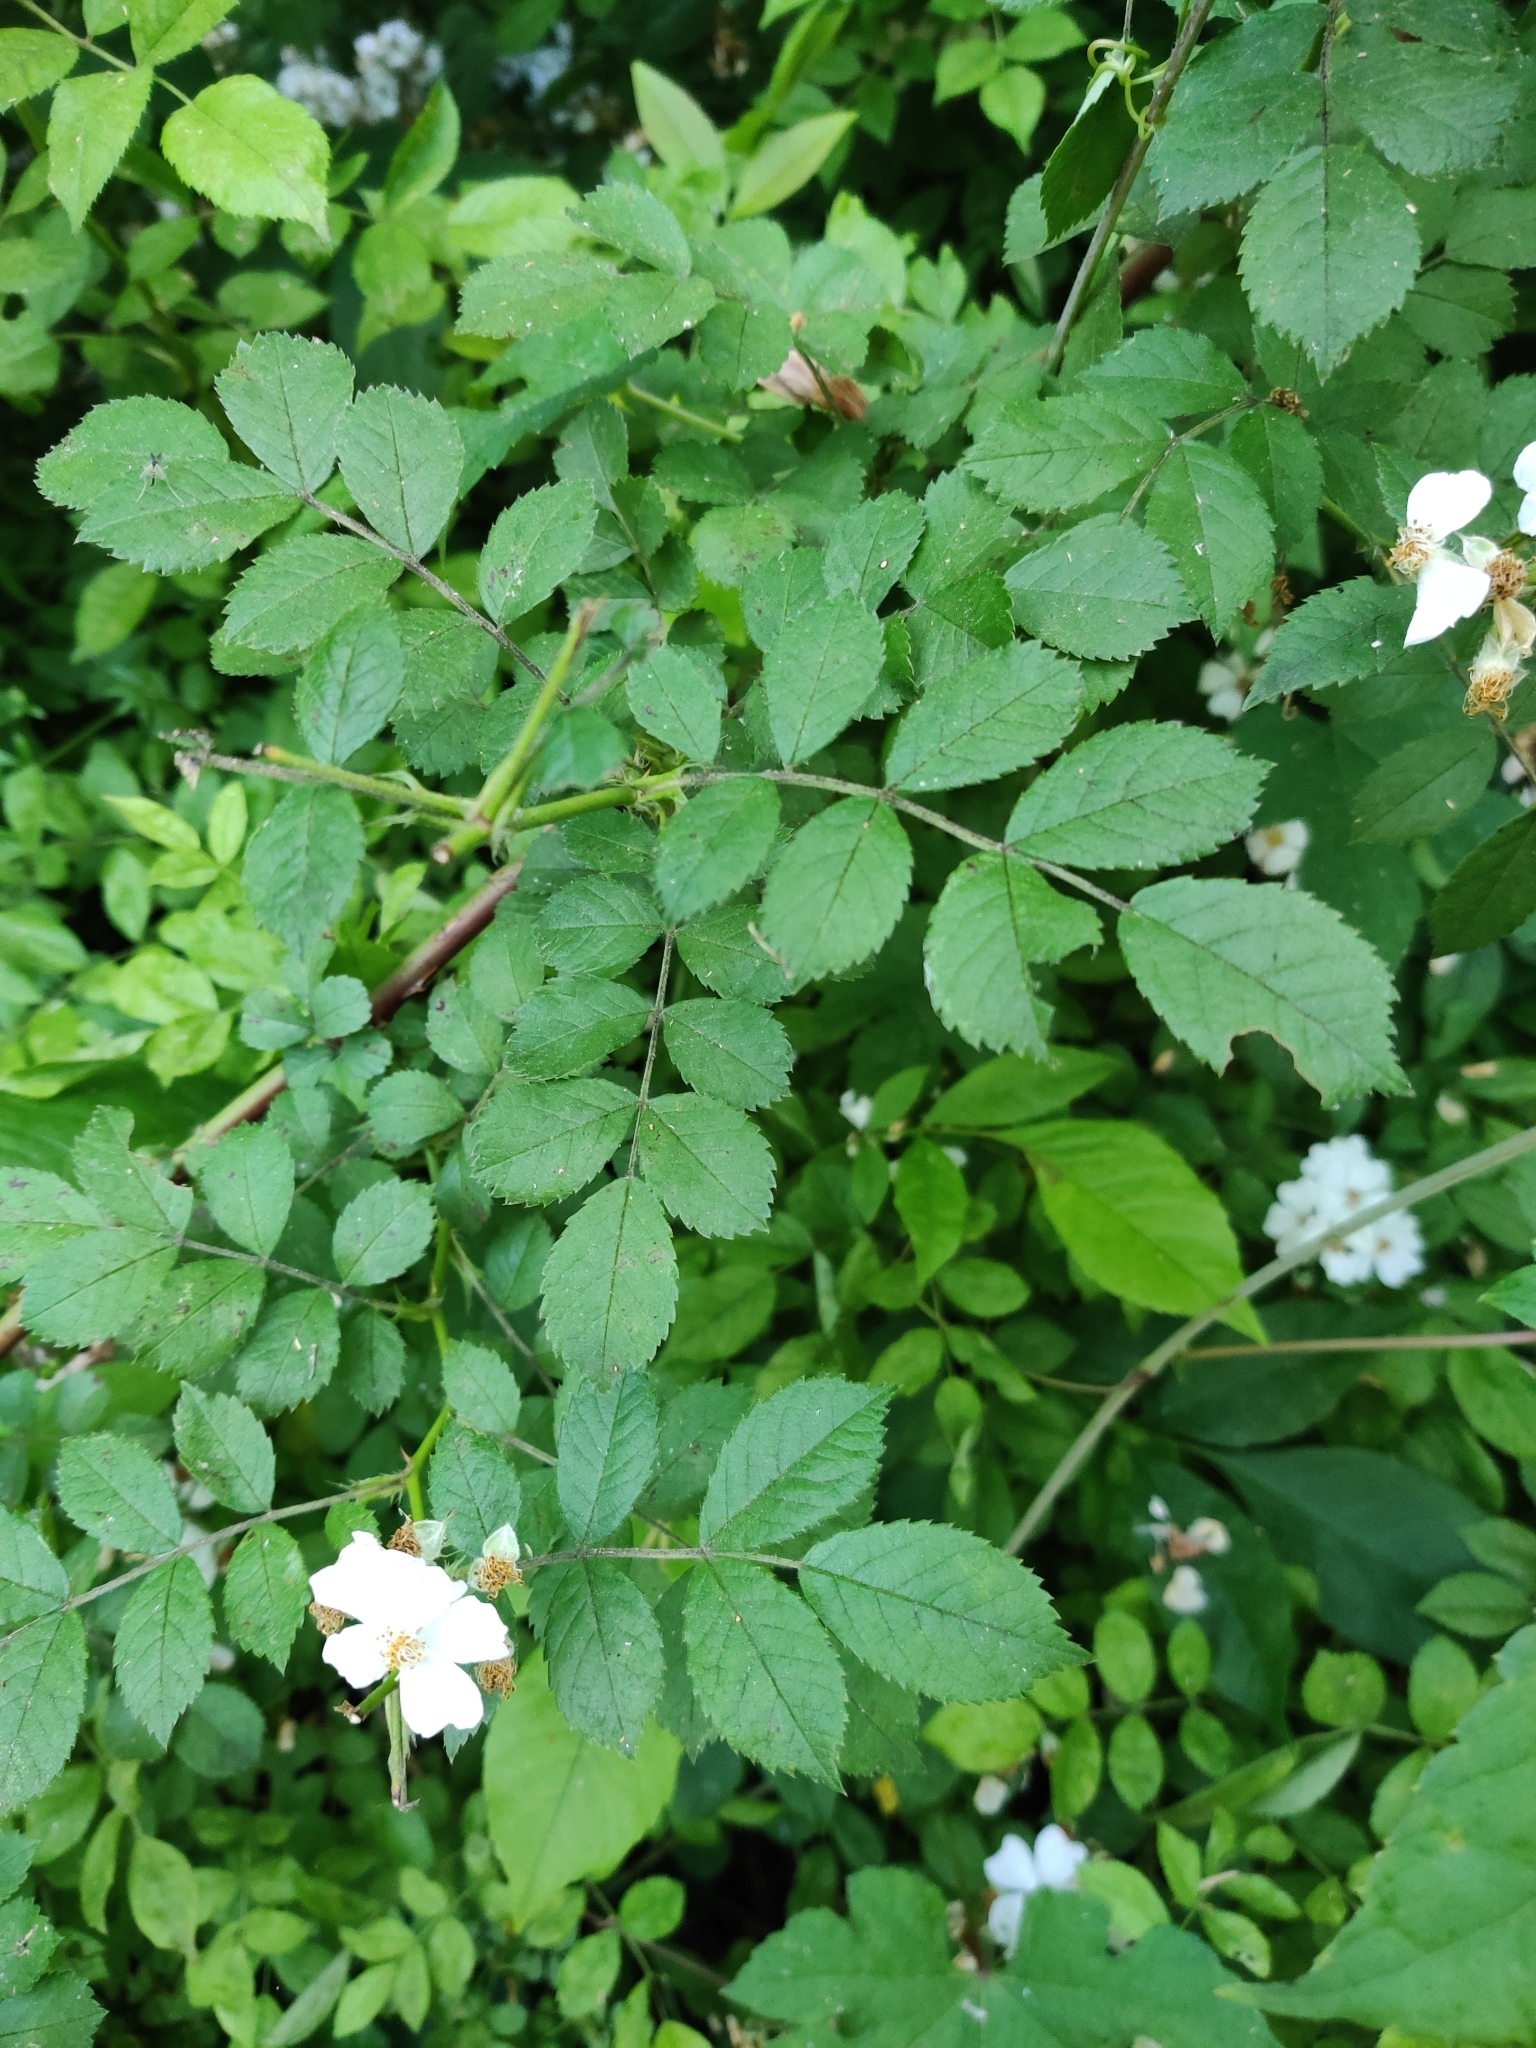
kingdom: Plantae
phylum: Tracheophyta
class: Magnoliopsida
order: Rosales
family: Rosaceae
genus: Rosa
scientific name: Rosa multiflora
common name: Multiflora rose
